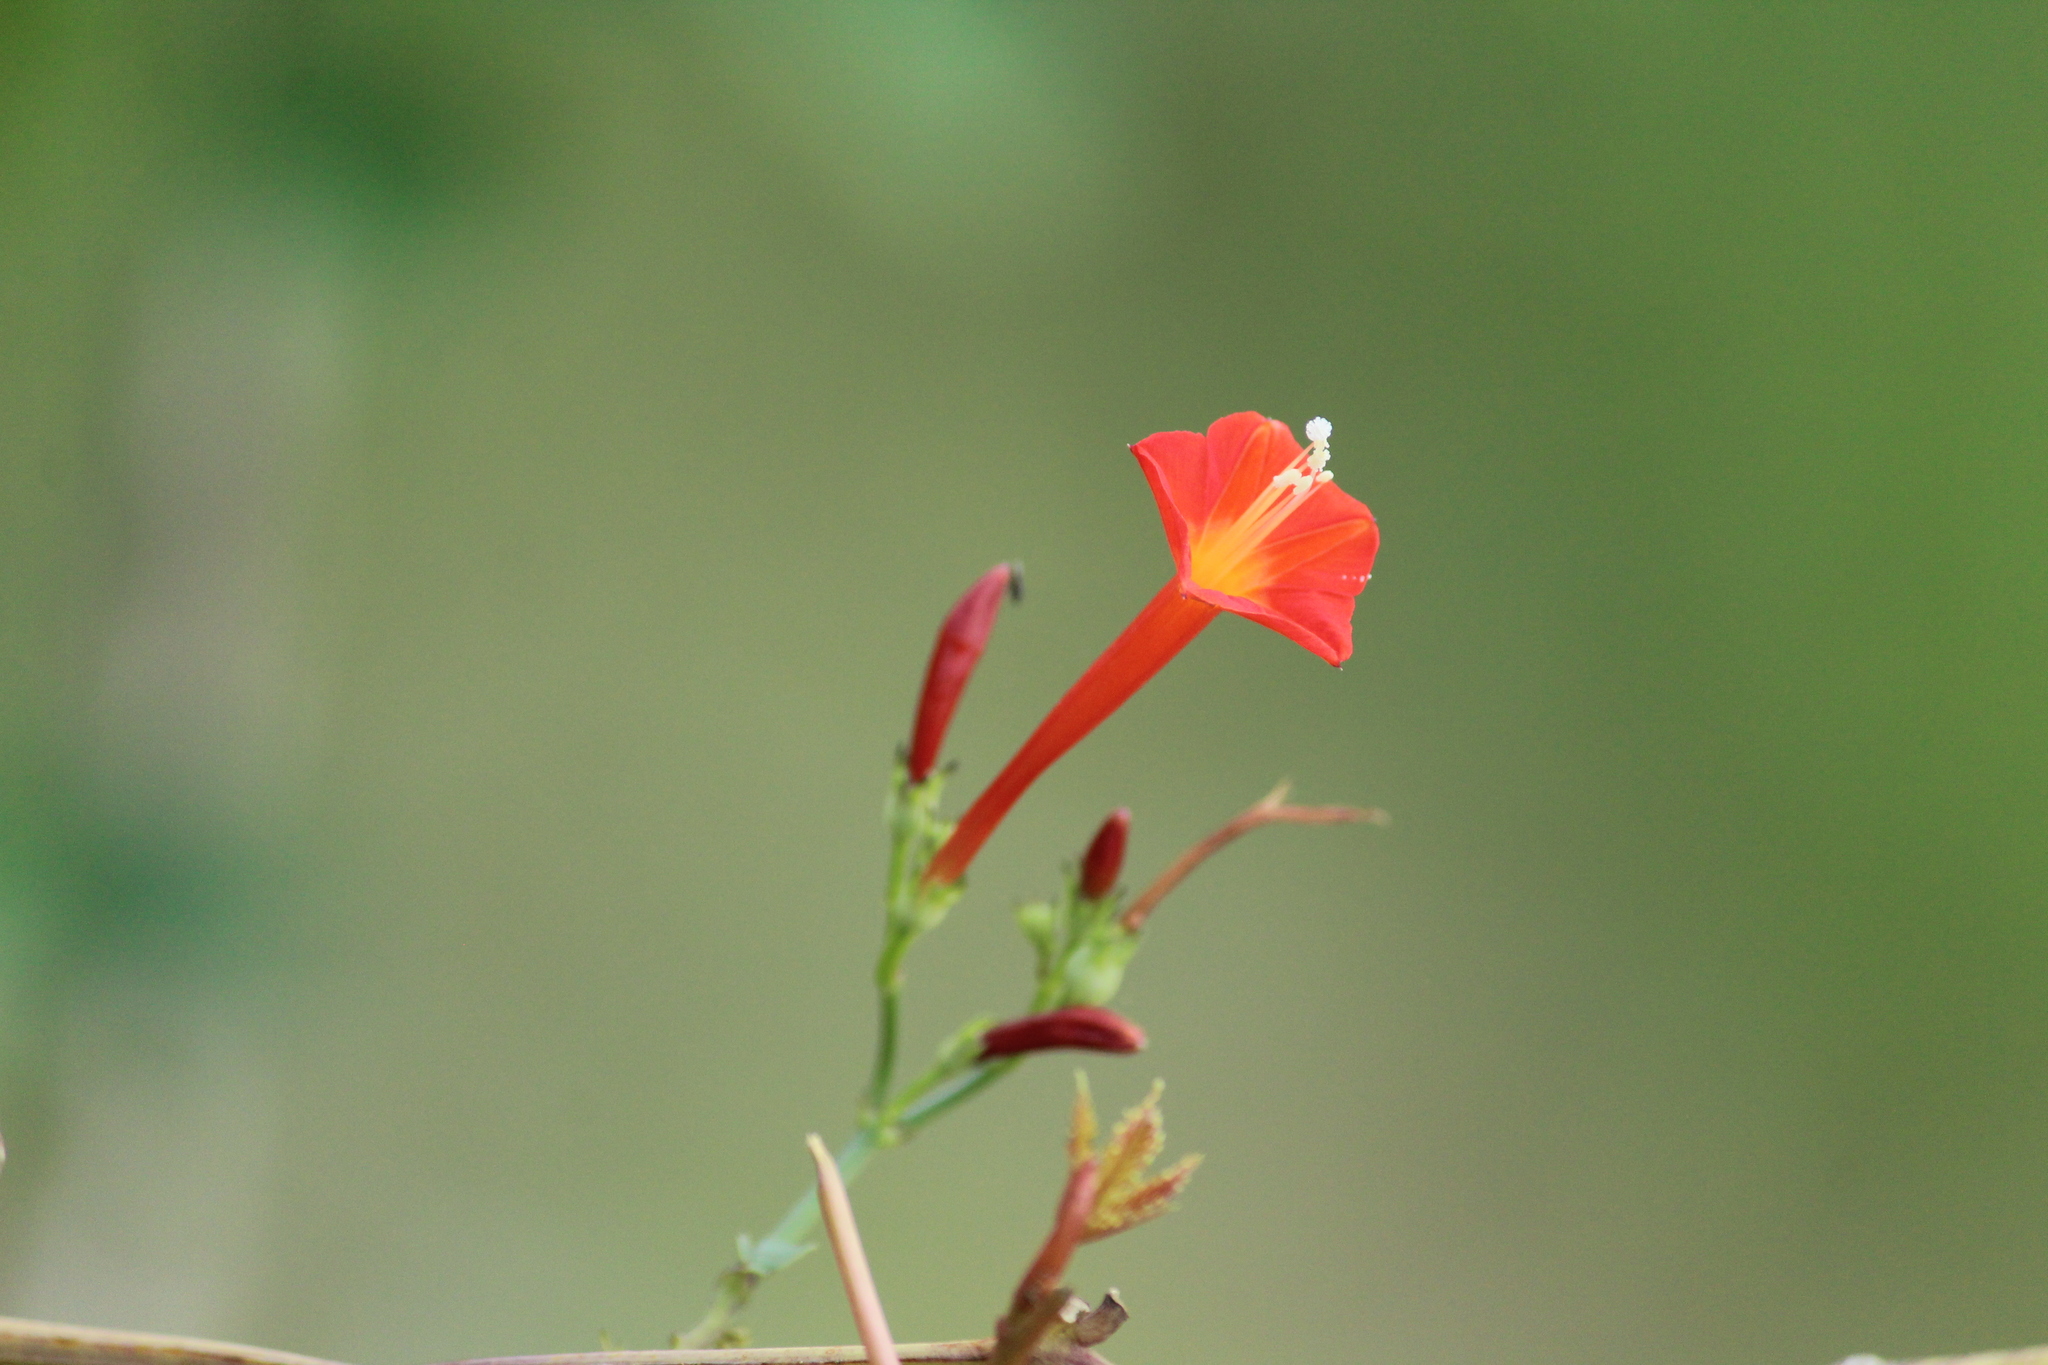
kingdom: Plantae
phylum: Tracheophyta
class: Magnoliopsida
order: Solanales
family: Convolvulaceae
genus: Ipomoea
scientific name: Ipomoea coccinea
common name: Red morning-glory
